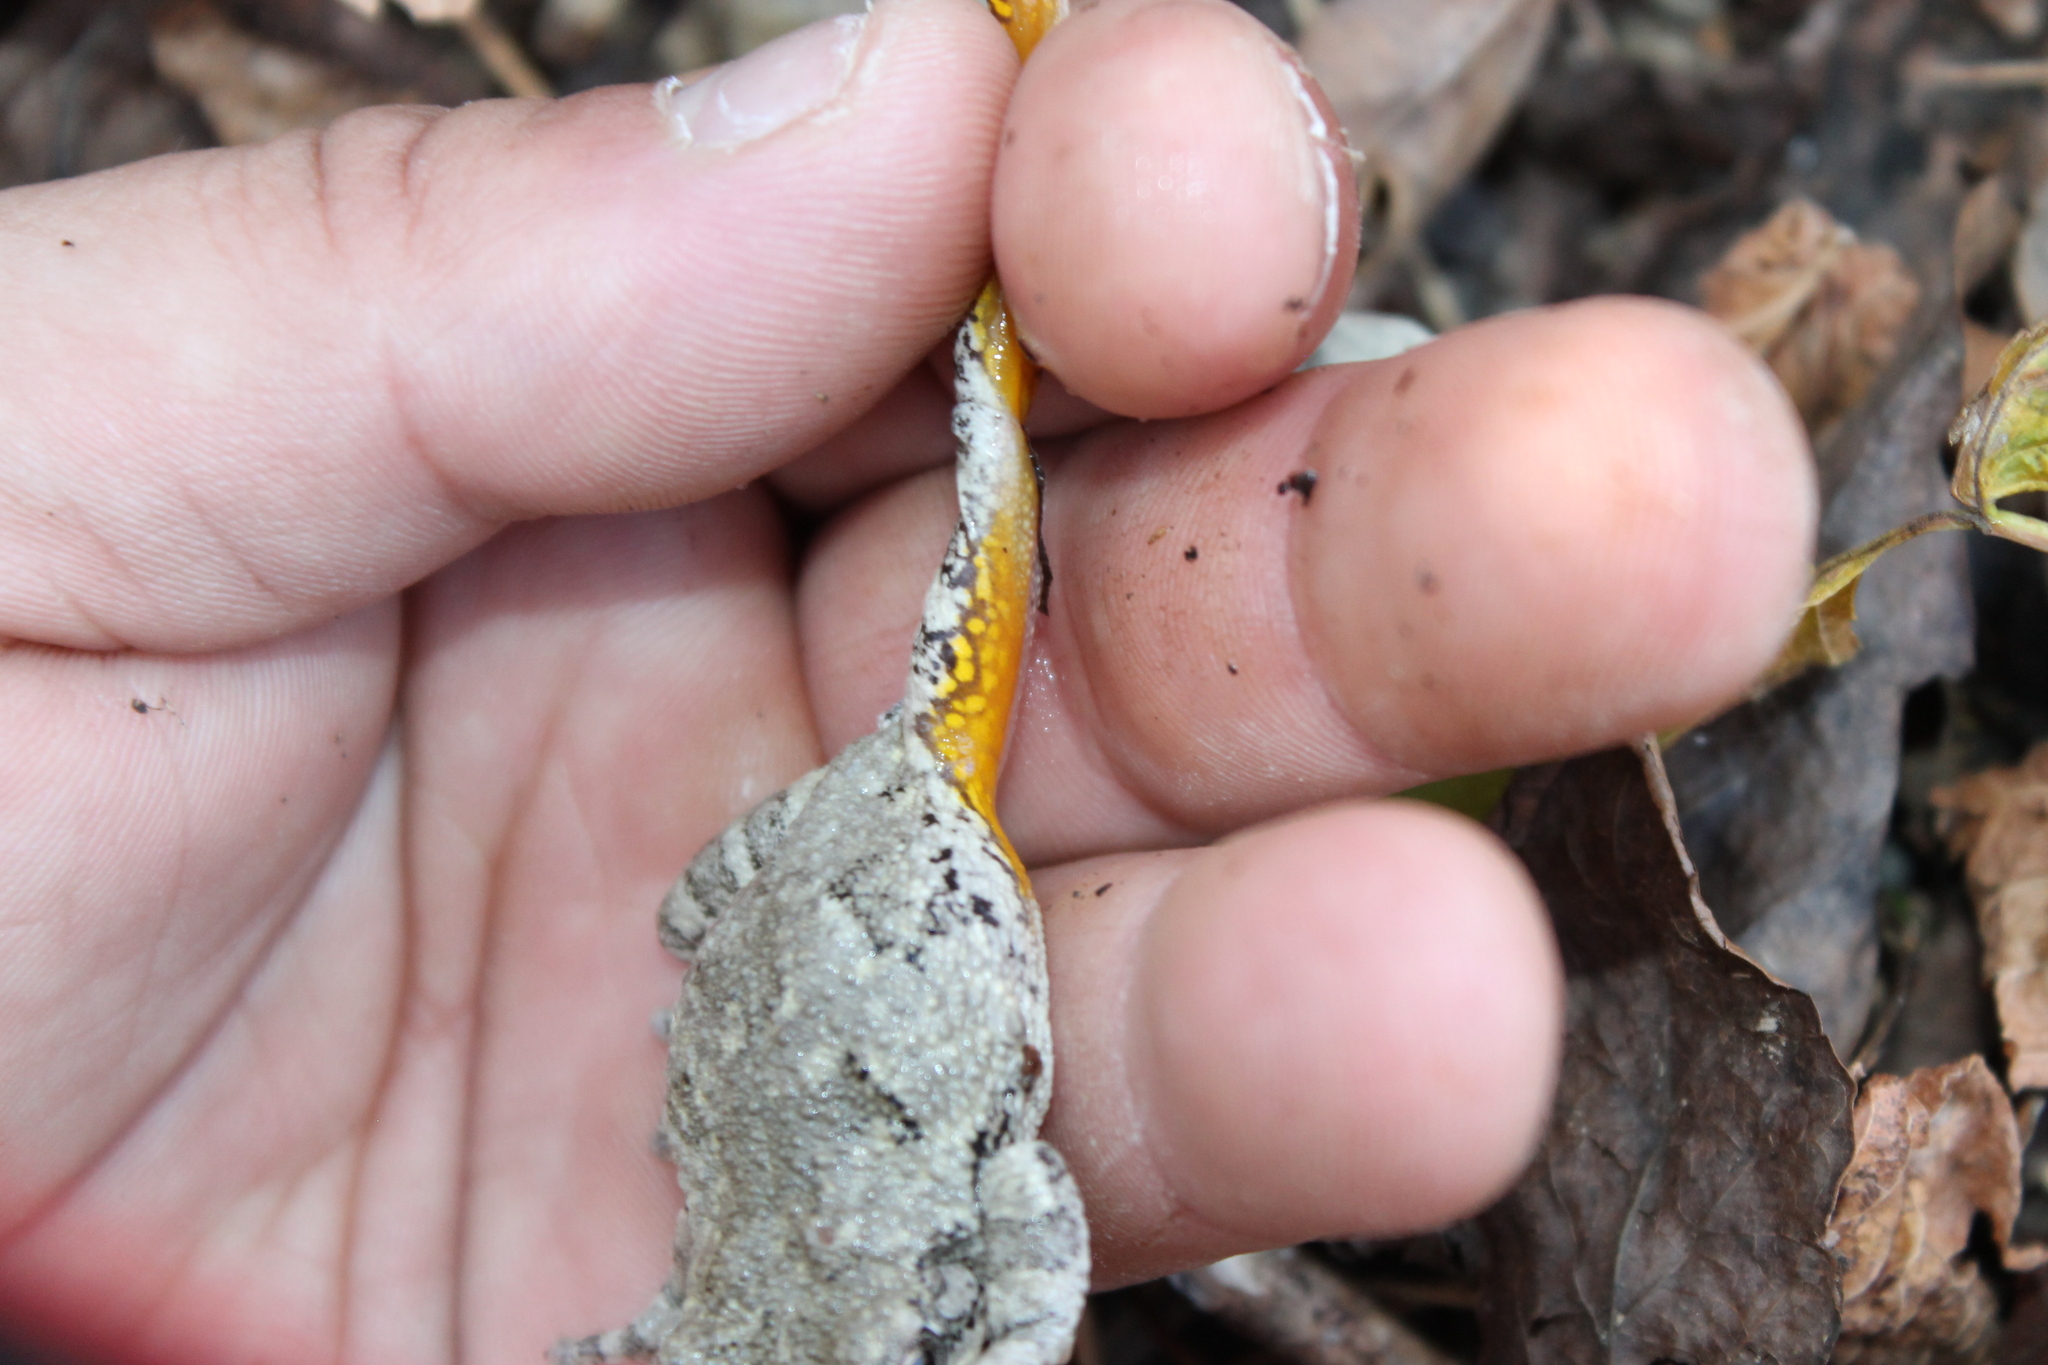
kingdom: Animalia
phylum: Chordata
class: Amphibia
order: Anura
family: Hylidae
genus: Dryophytes
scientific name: Dryophytes chrysoscelis
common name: Cope's gray treefrog
